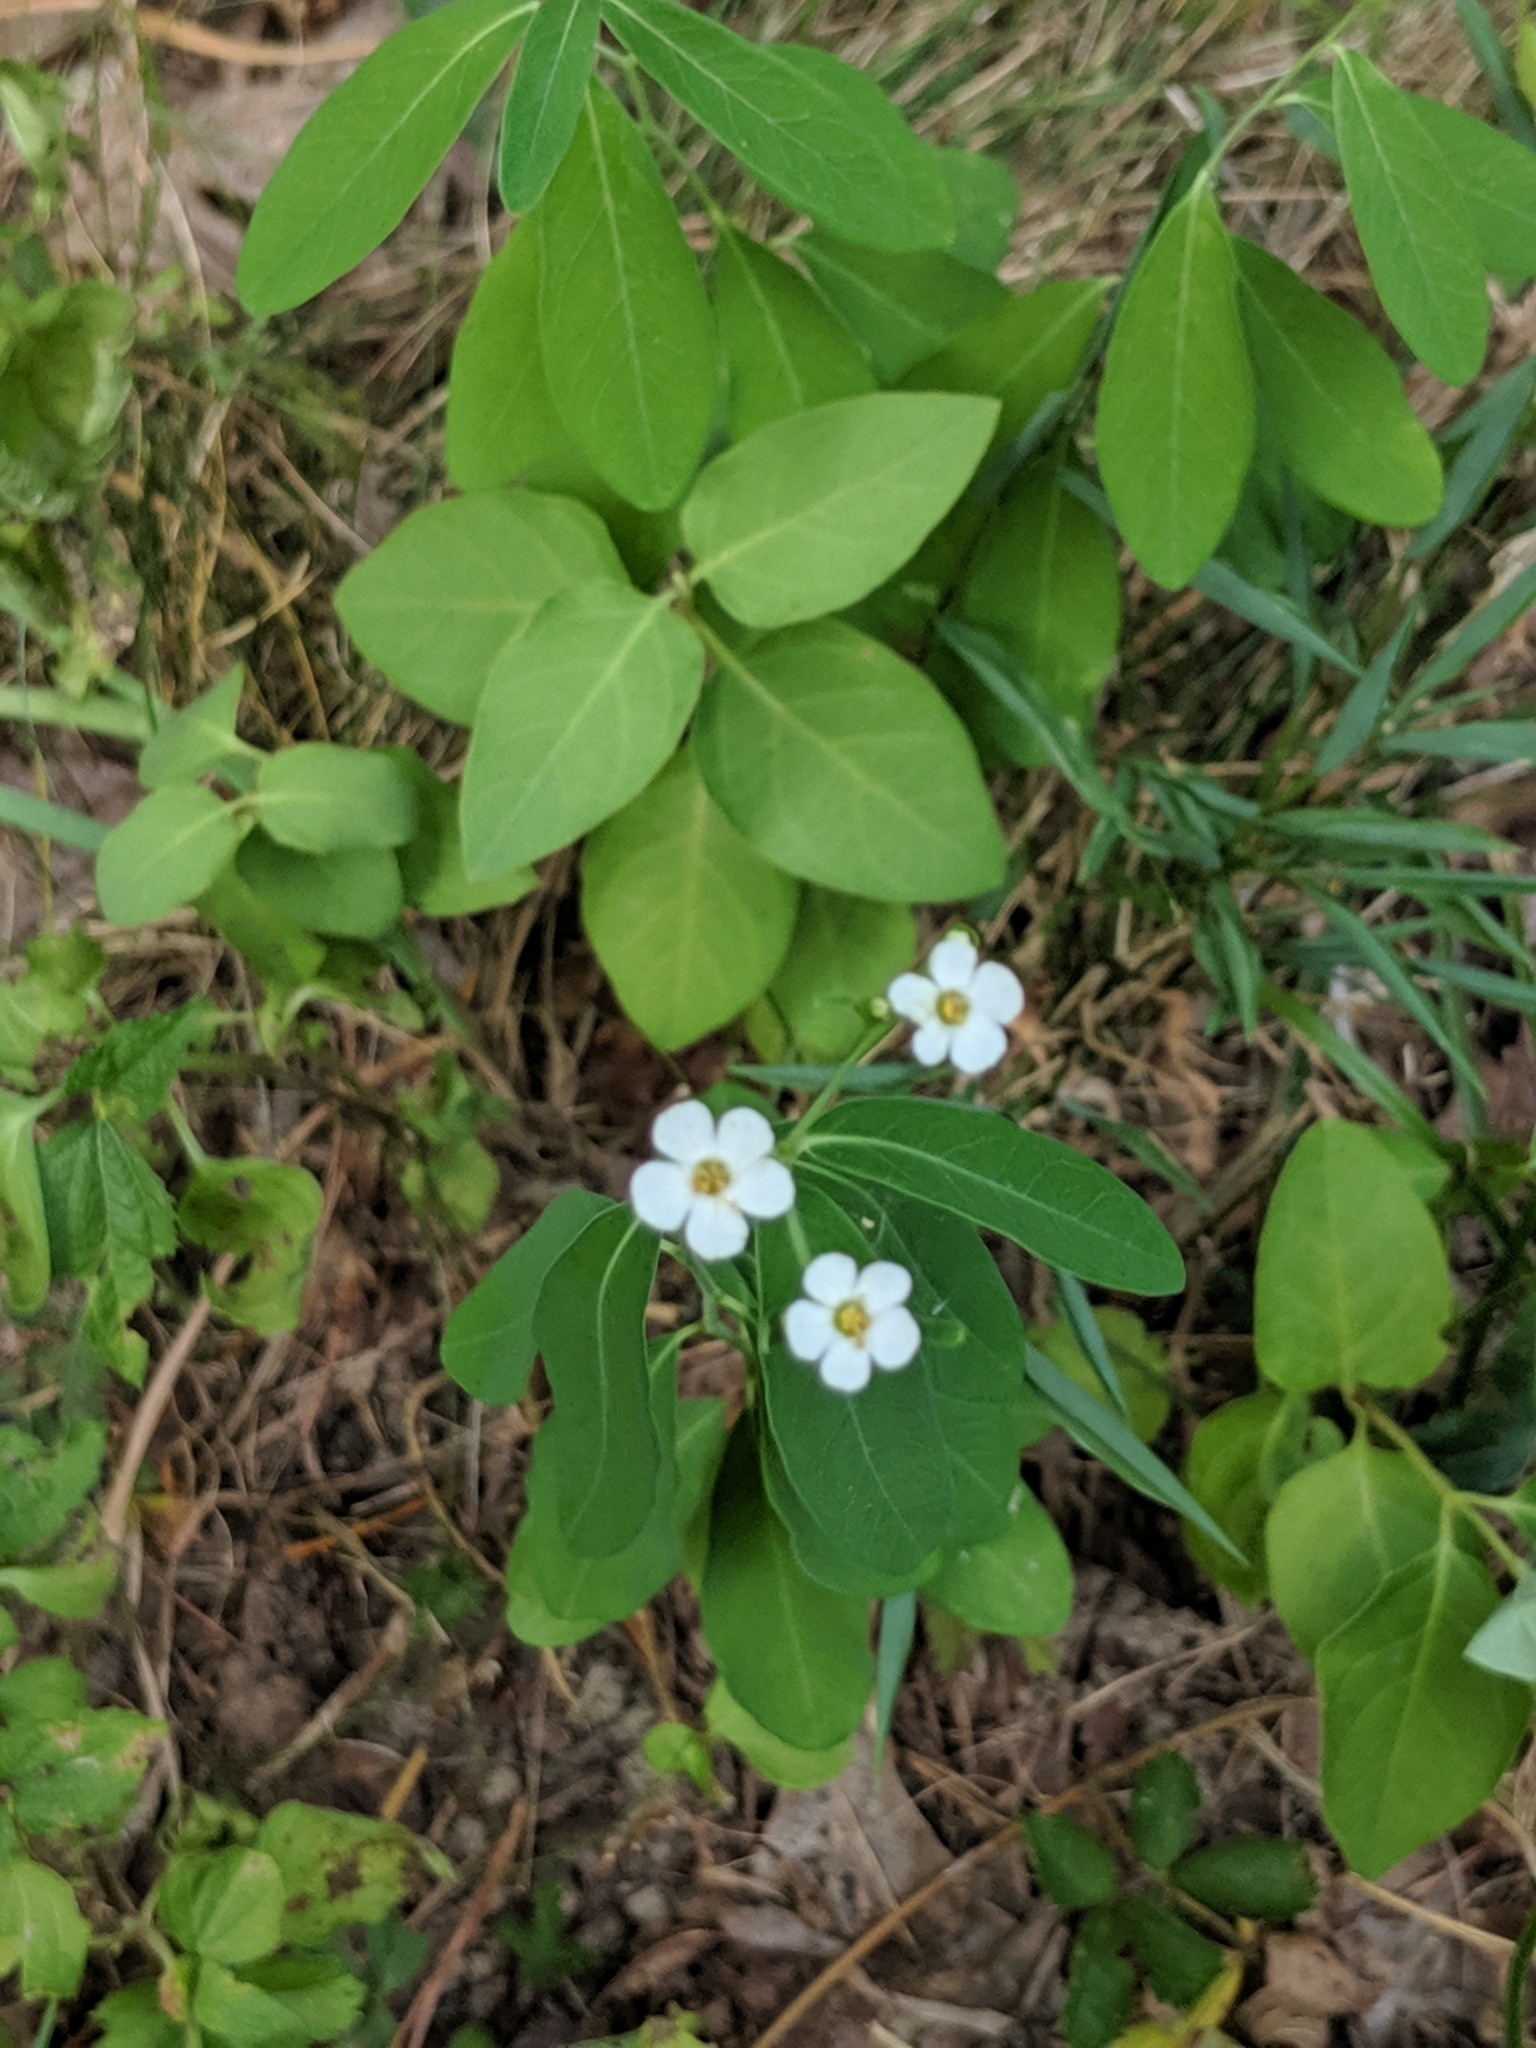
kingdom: Plantae
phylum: Tracheophyta
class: Magnoliopsida
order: Malpighiales
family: Euphorbiaceae
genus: Euphorbia
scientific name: Euphorbia corollata
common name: Flowering spurge
